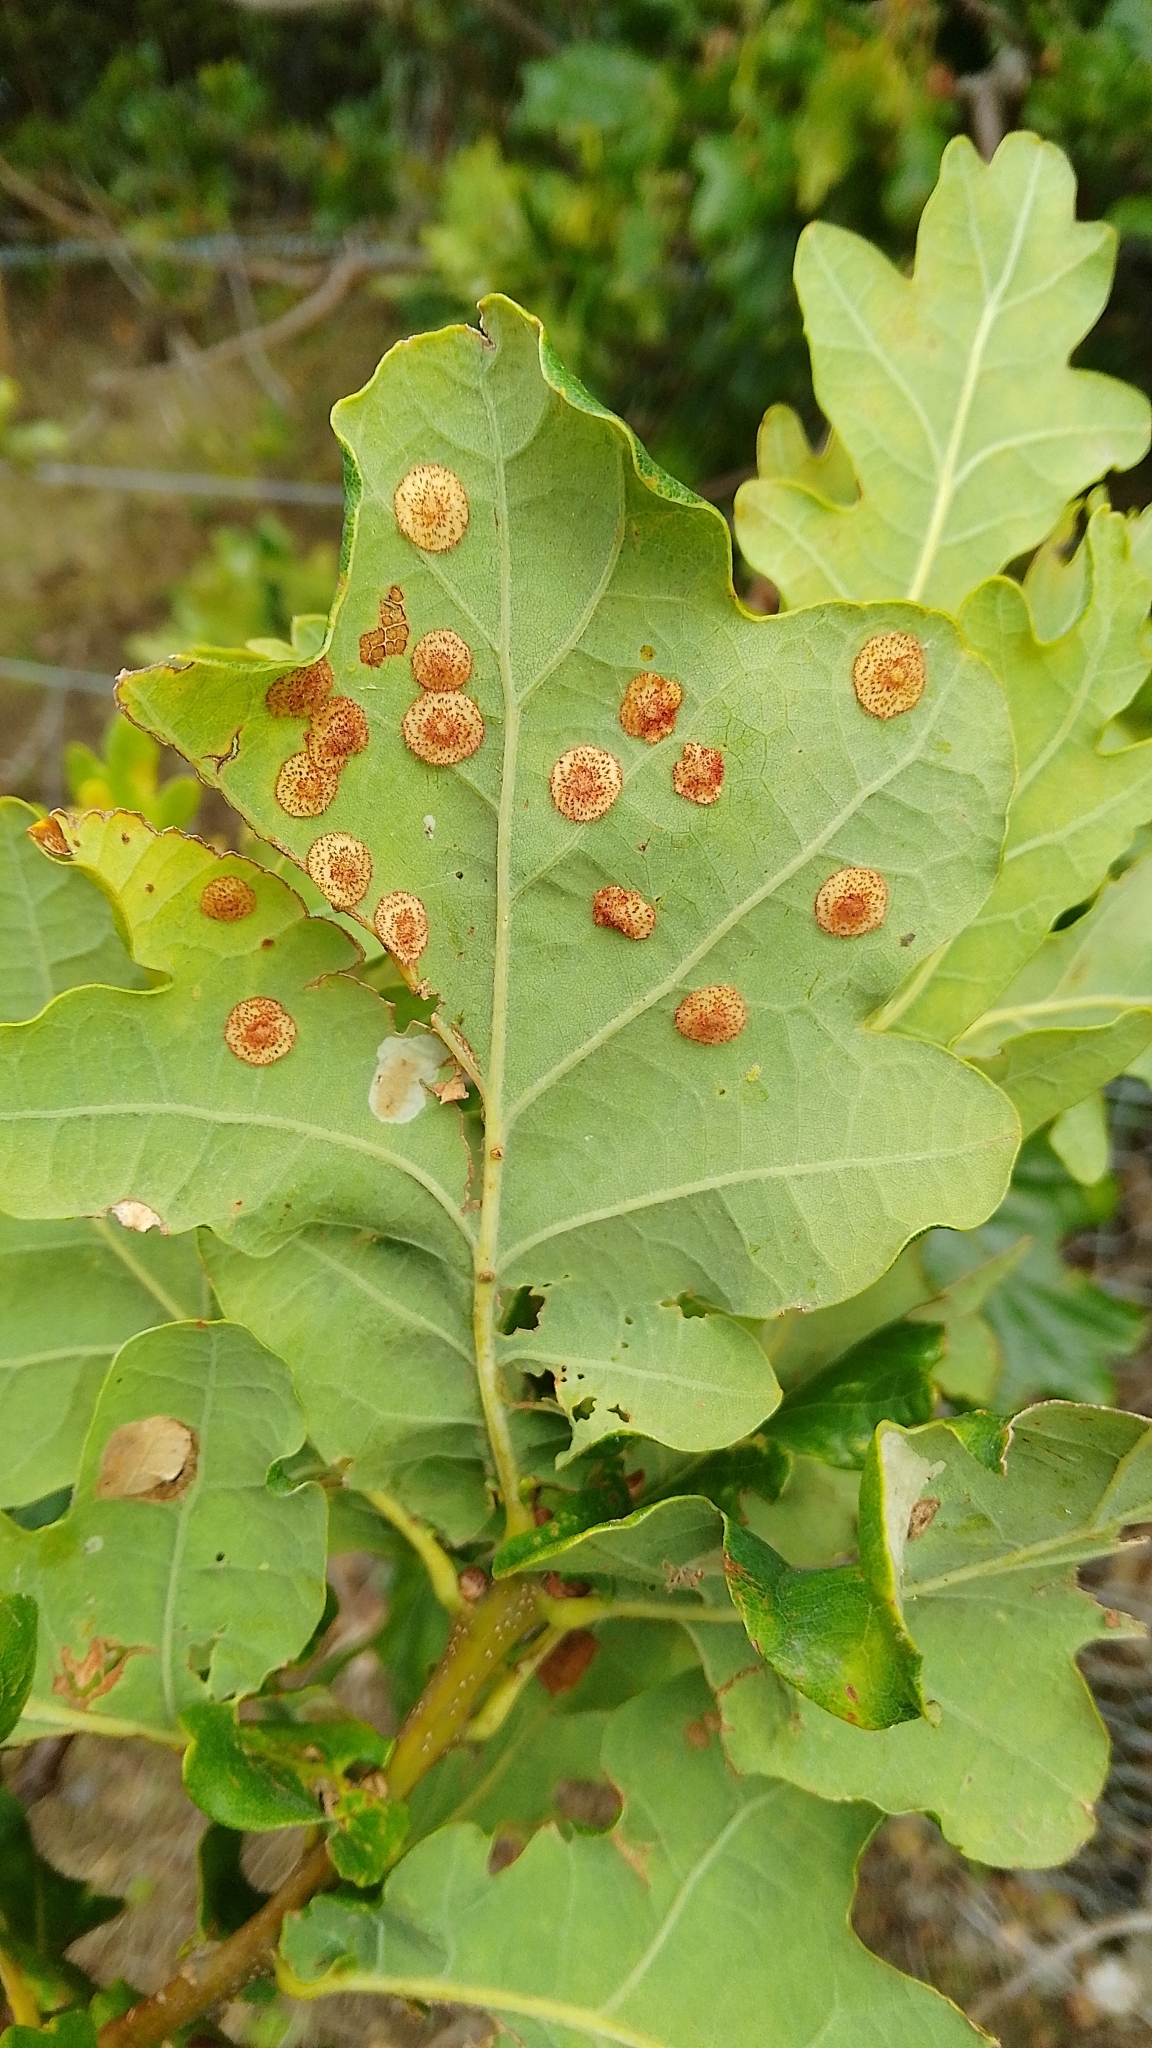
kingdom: Animalia
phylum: Arthropoda
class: Insecta
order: Hymenoptera
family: Cynipidae
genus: Neuroterus
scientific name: Neuroterus quercusbaccarum
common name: Common spangle gall
